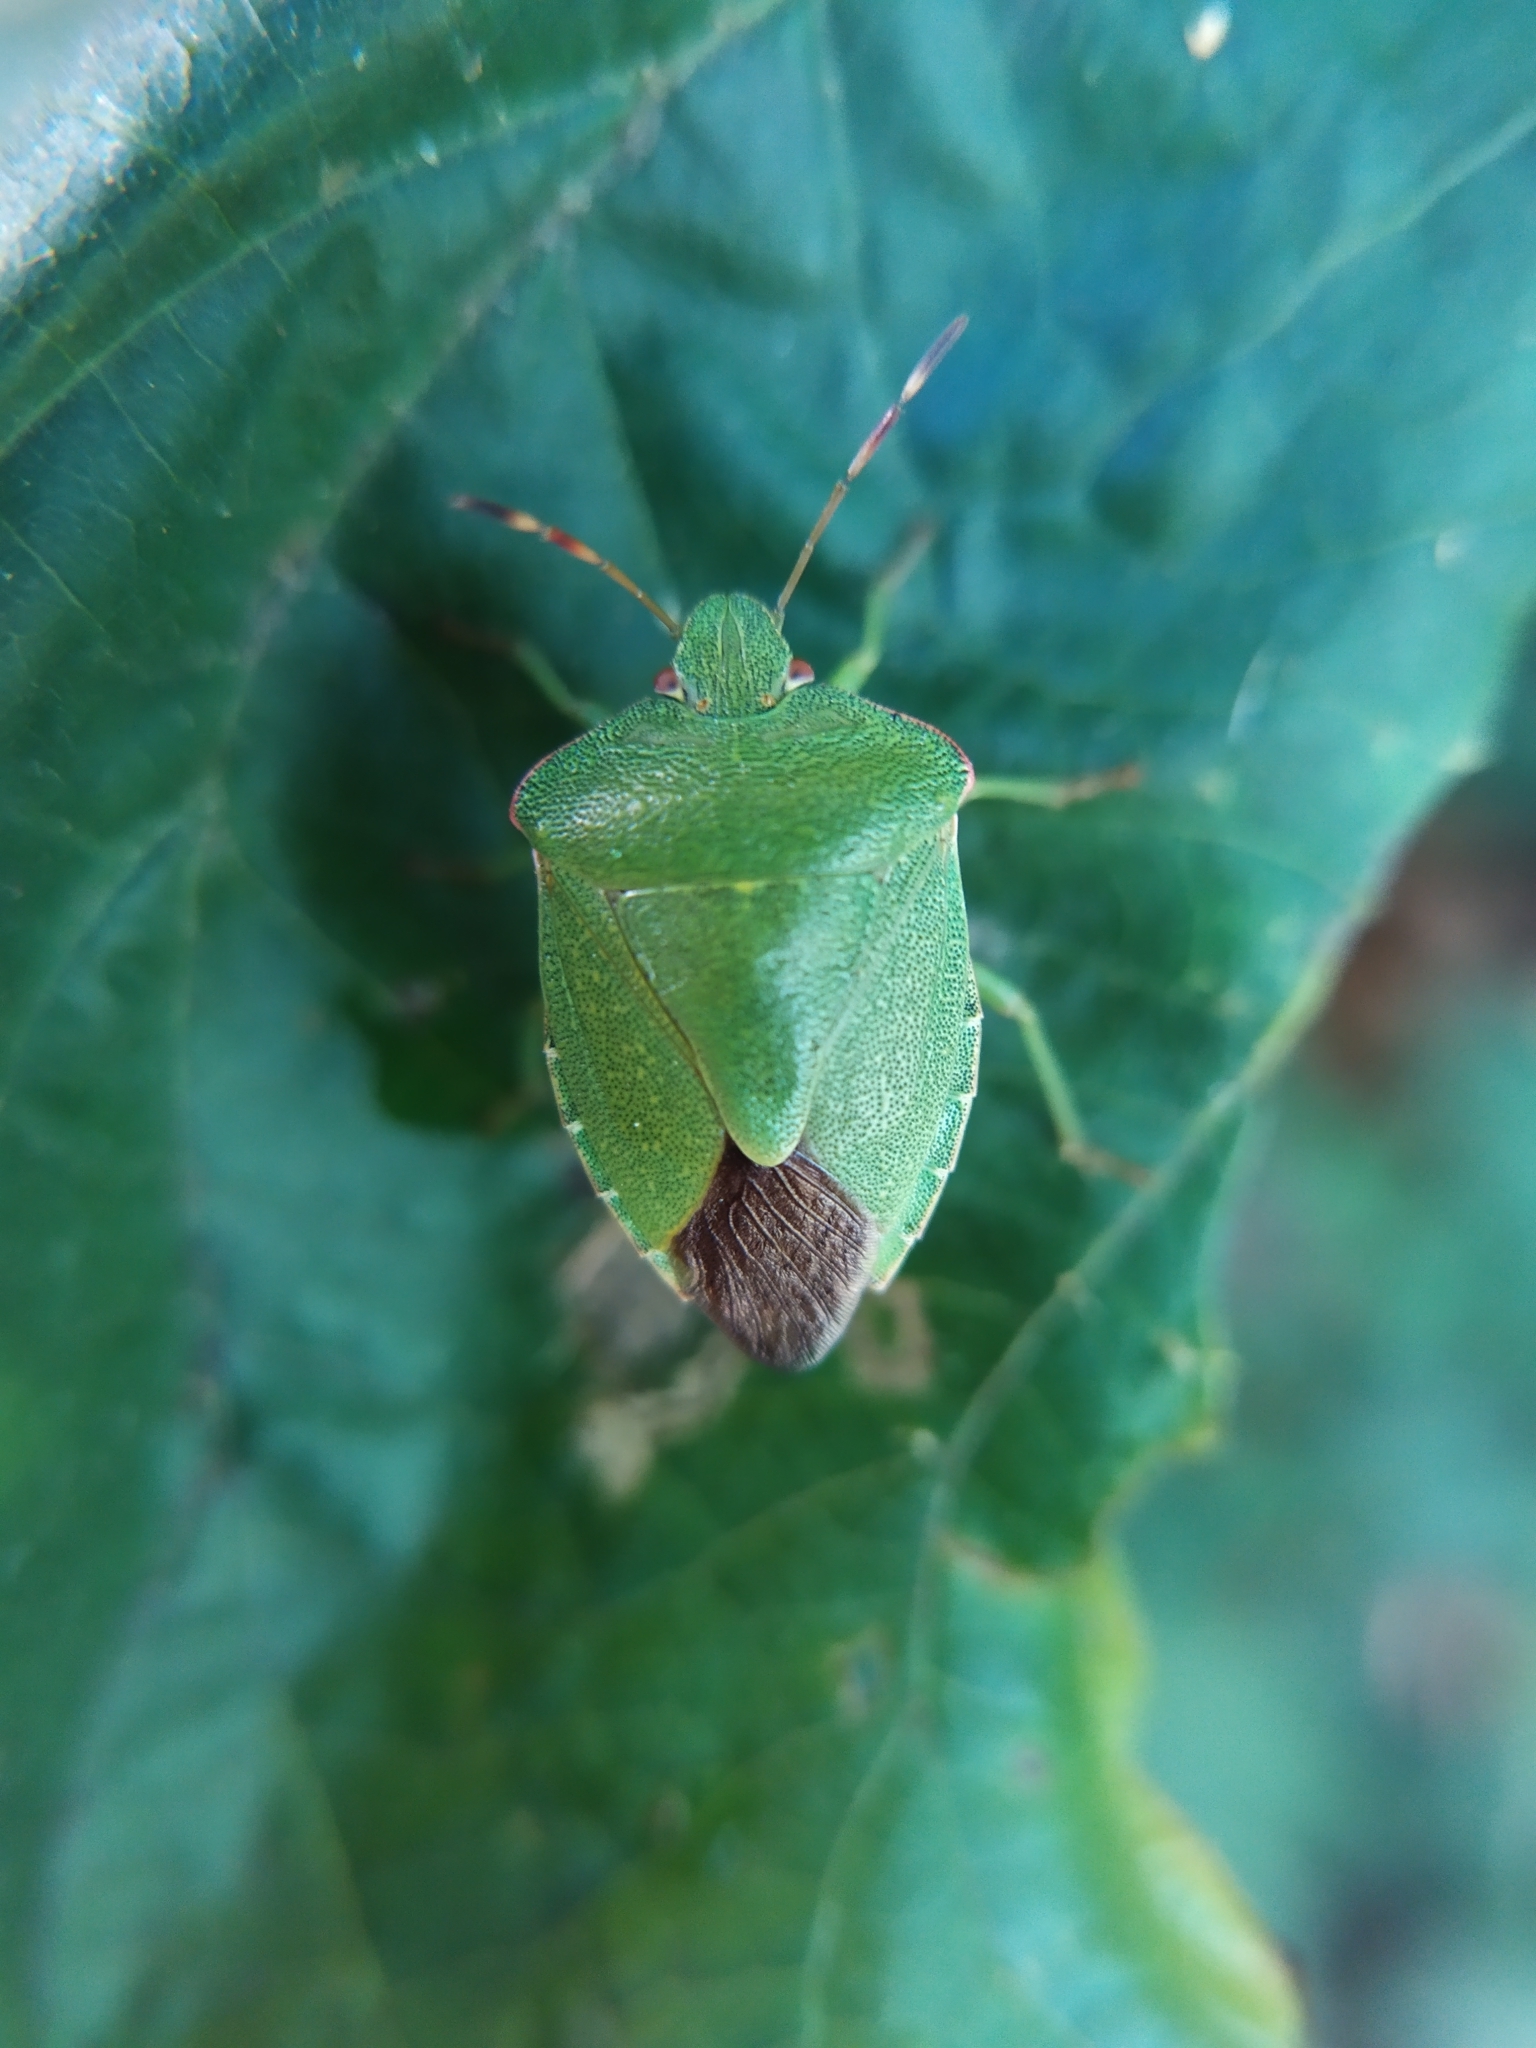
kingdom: Animalia
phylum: Arthropoda
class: Insecta
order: Hemiptera
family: Pentatomidae
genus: Palomena
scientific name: Palomena prasina
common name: Green shieldbug
